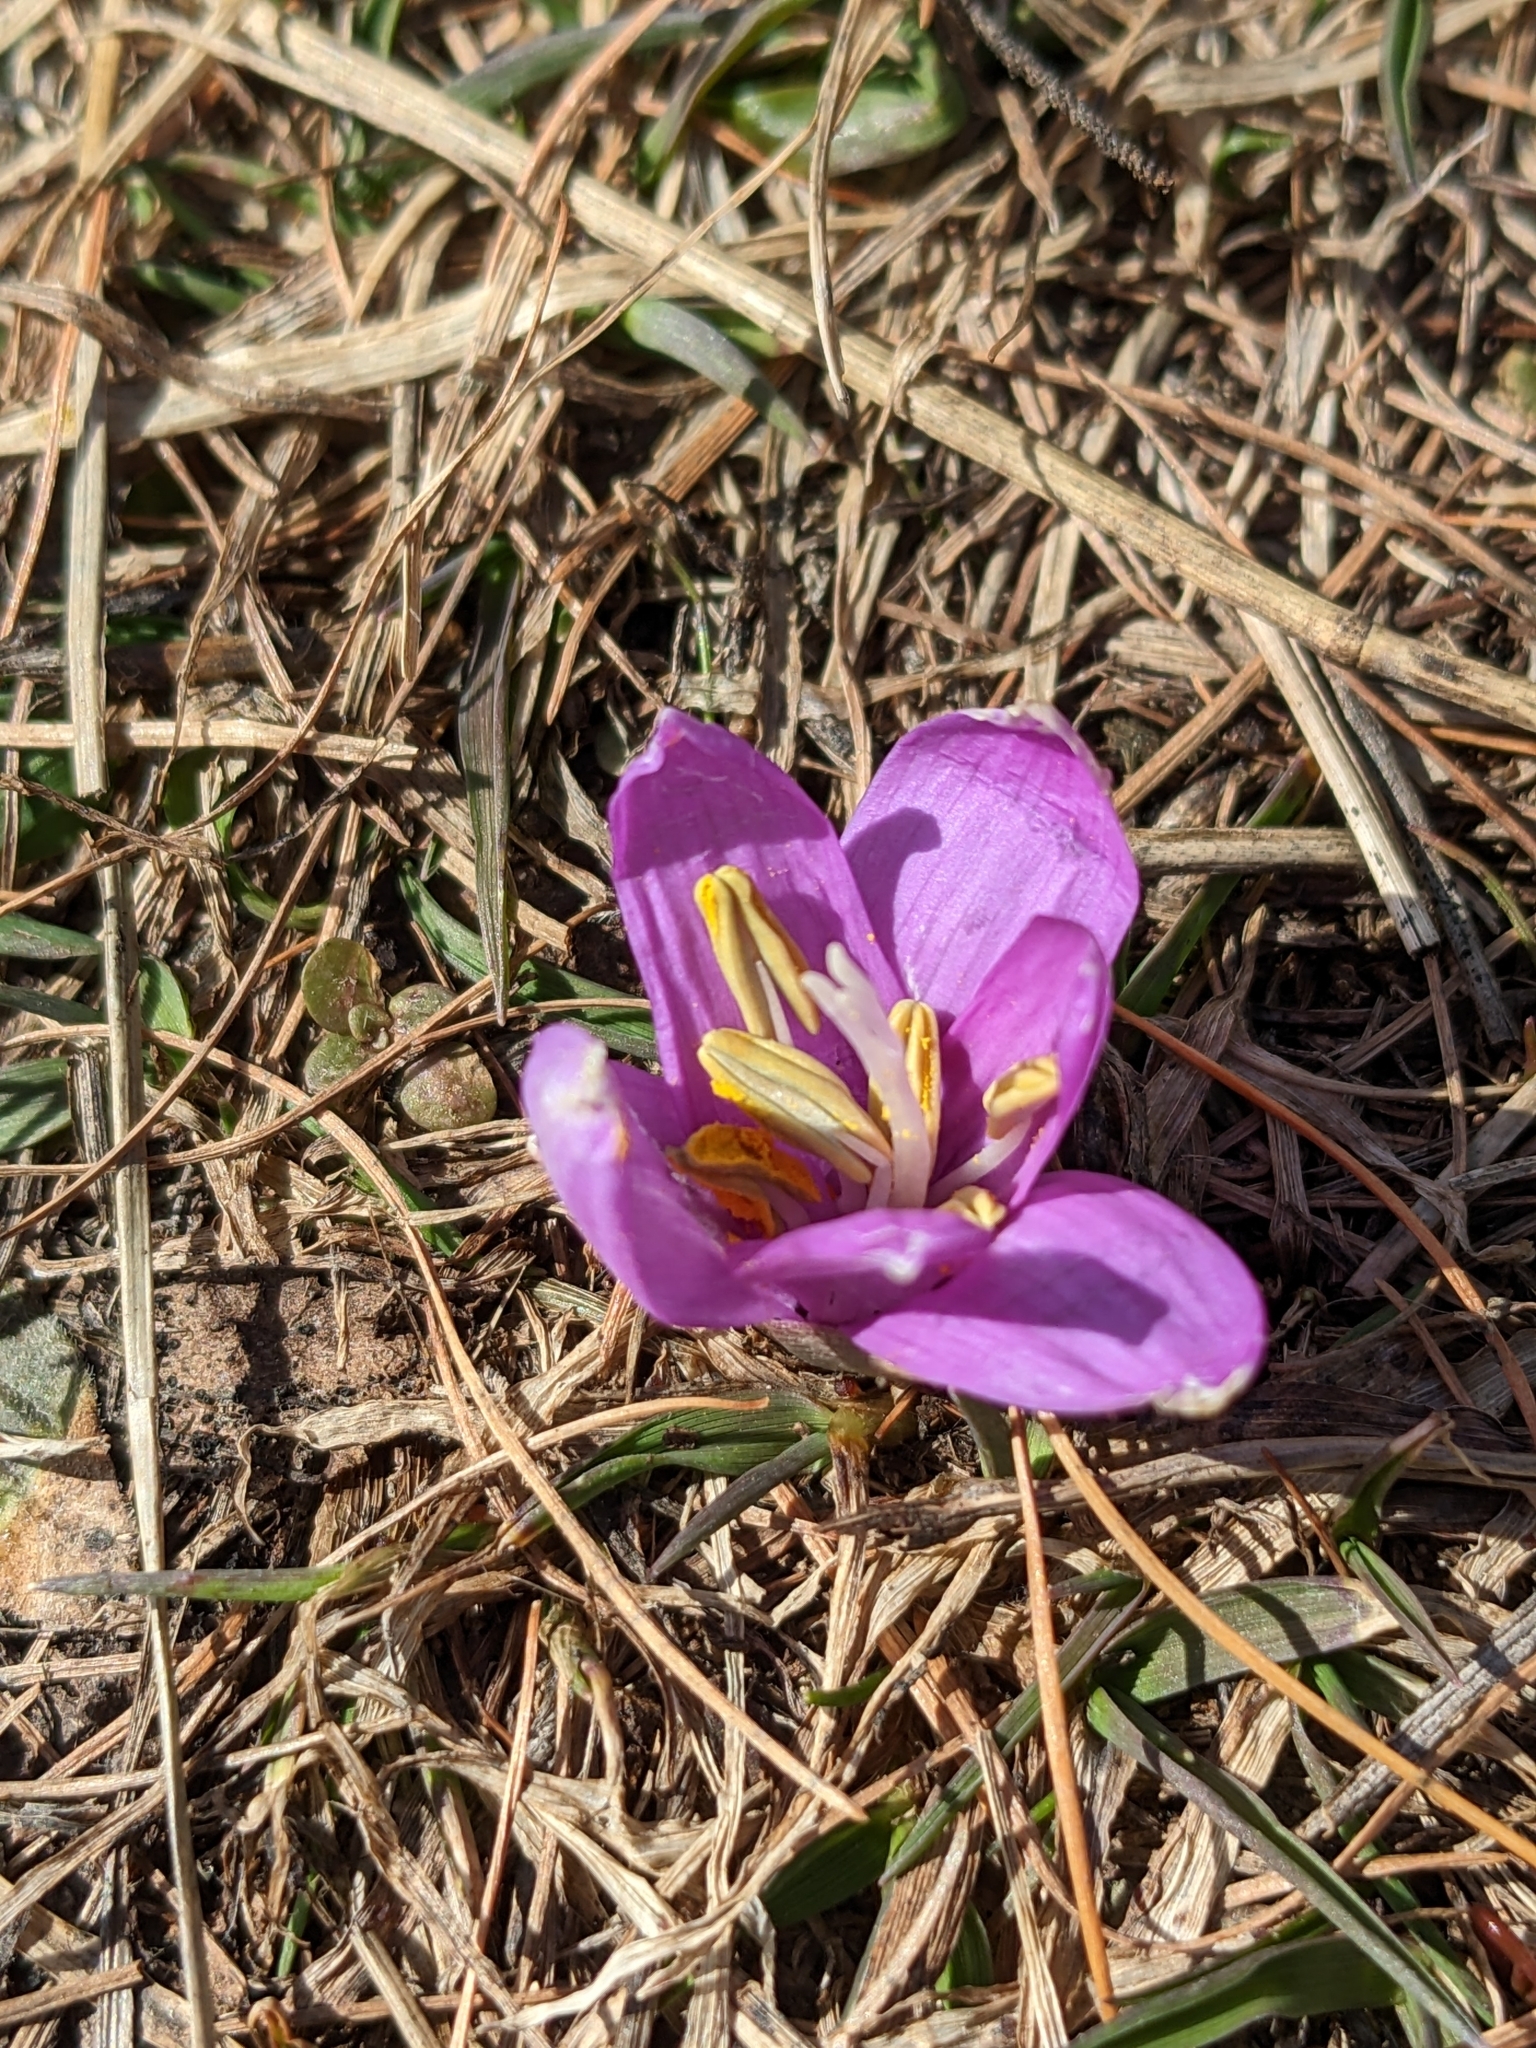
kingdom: Plantae
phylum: Tracheophyta
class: Liliopsida
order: Liliales
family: Colchicaceae
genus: Colchicum
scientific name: Colchicum bulbocodium
